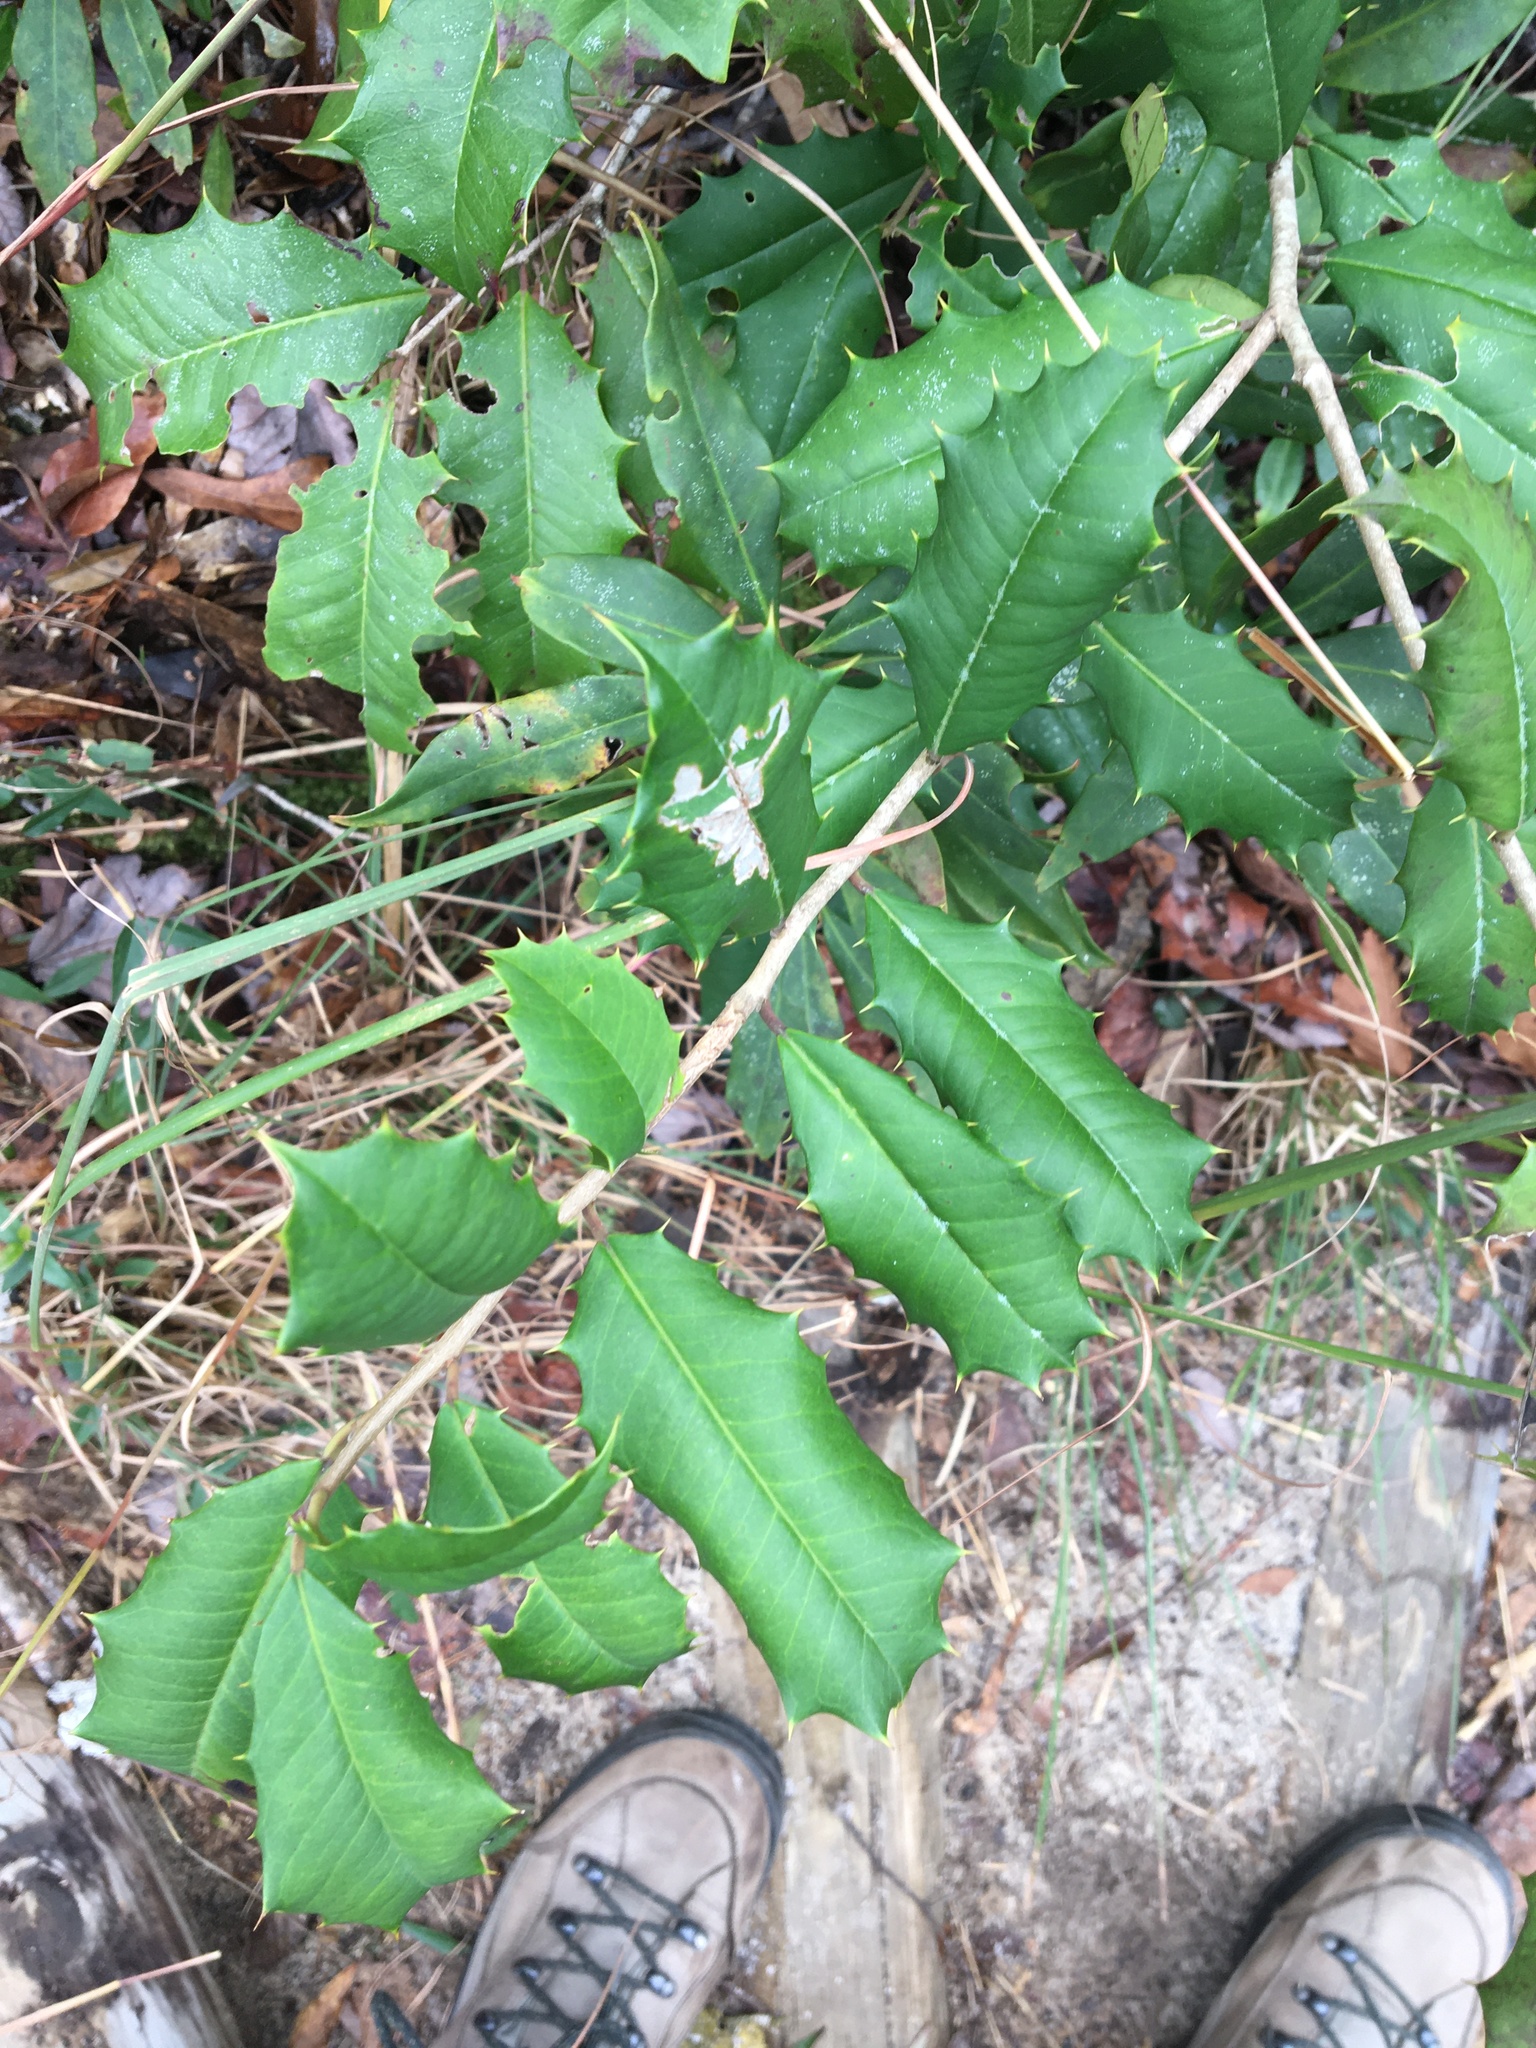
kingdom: Plantae
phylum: Tracheophyta
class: Magnoliopsida
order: Aquifoliales
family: Aquifoliaceae
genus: Ilex
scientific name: Ilex opaca
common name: American holly
